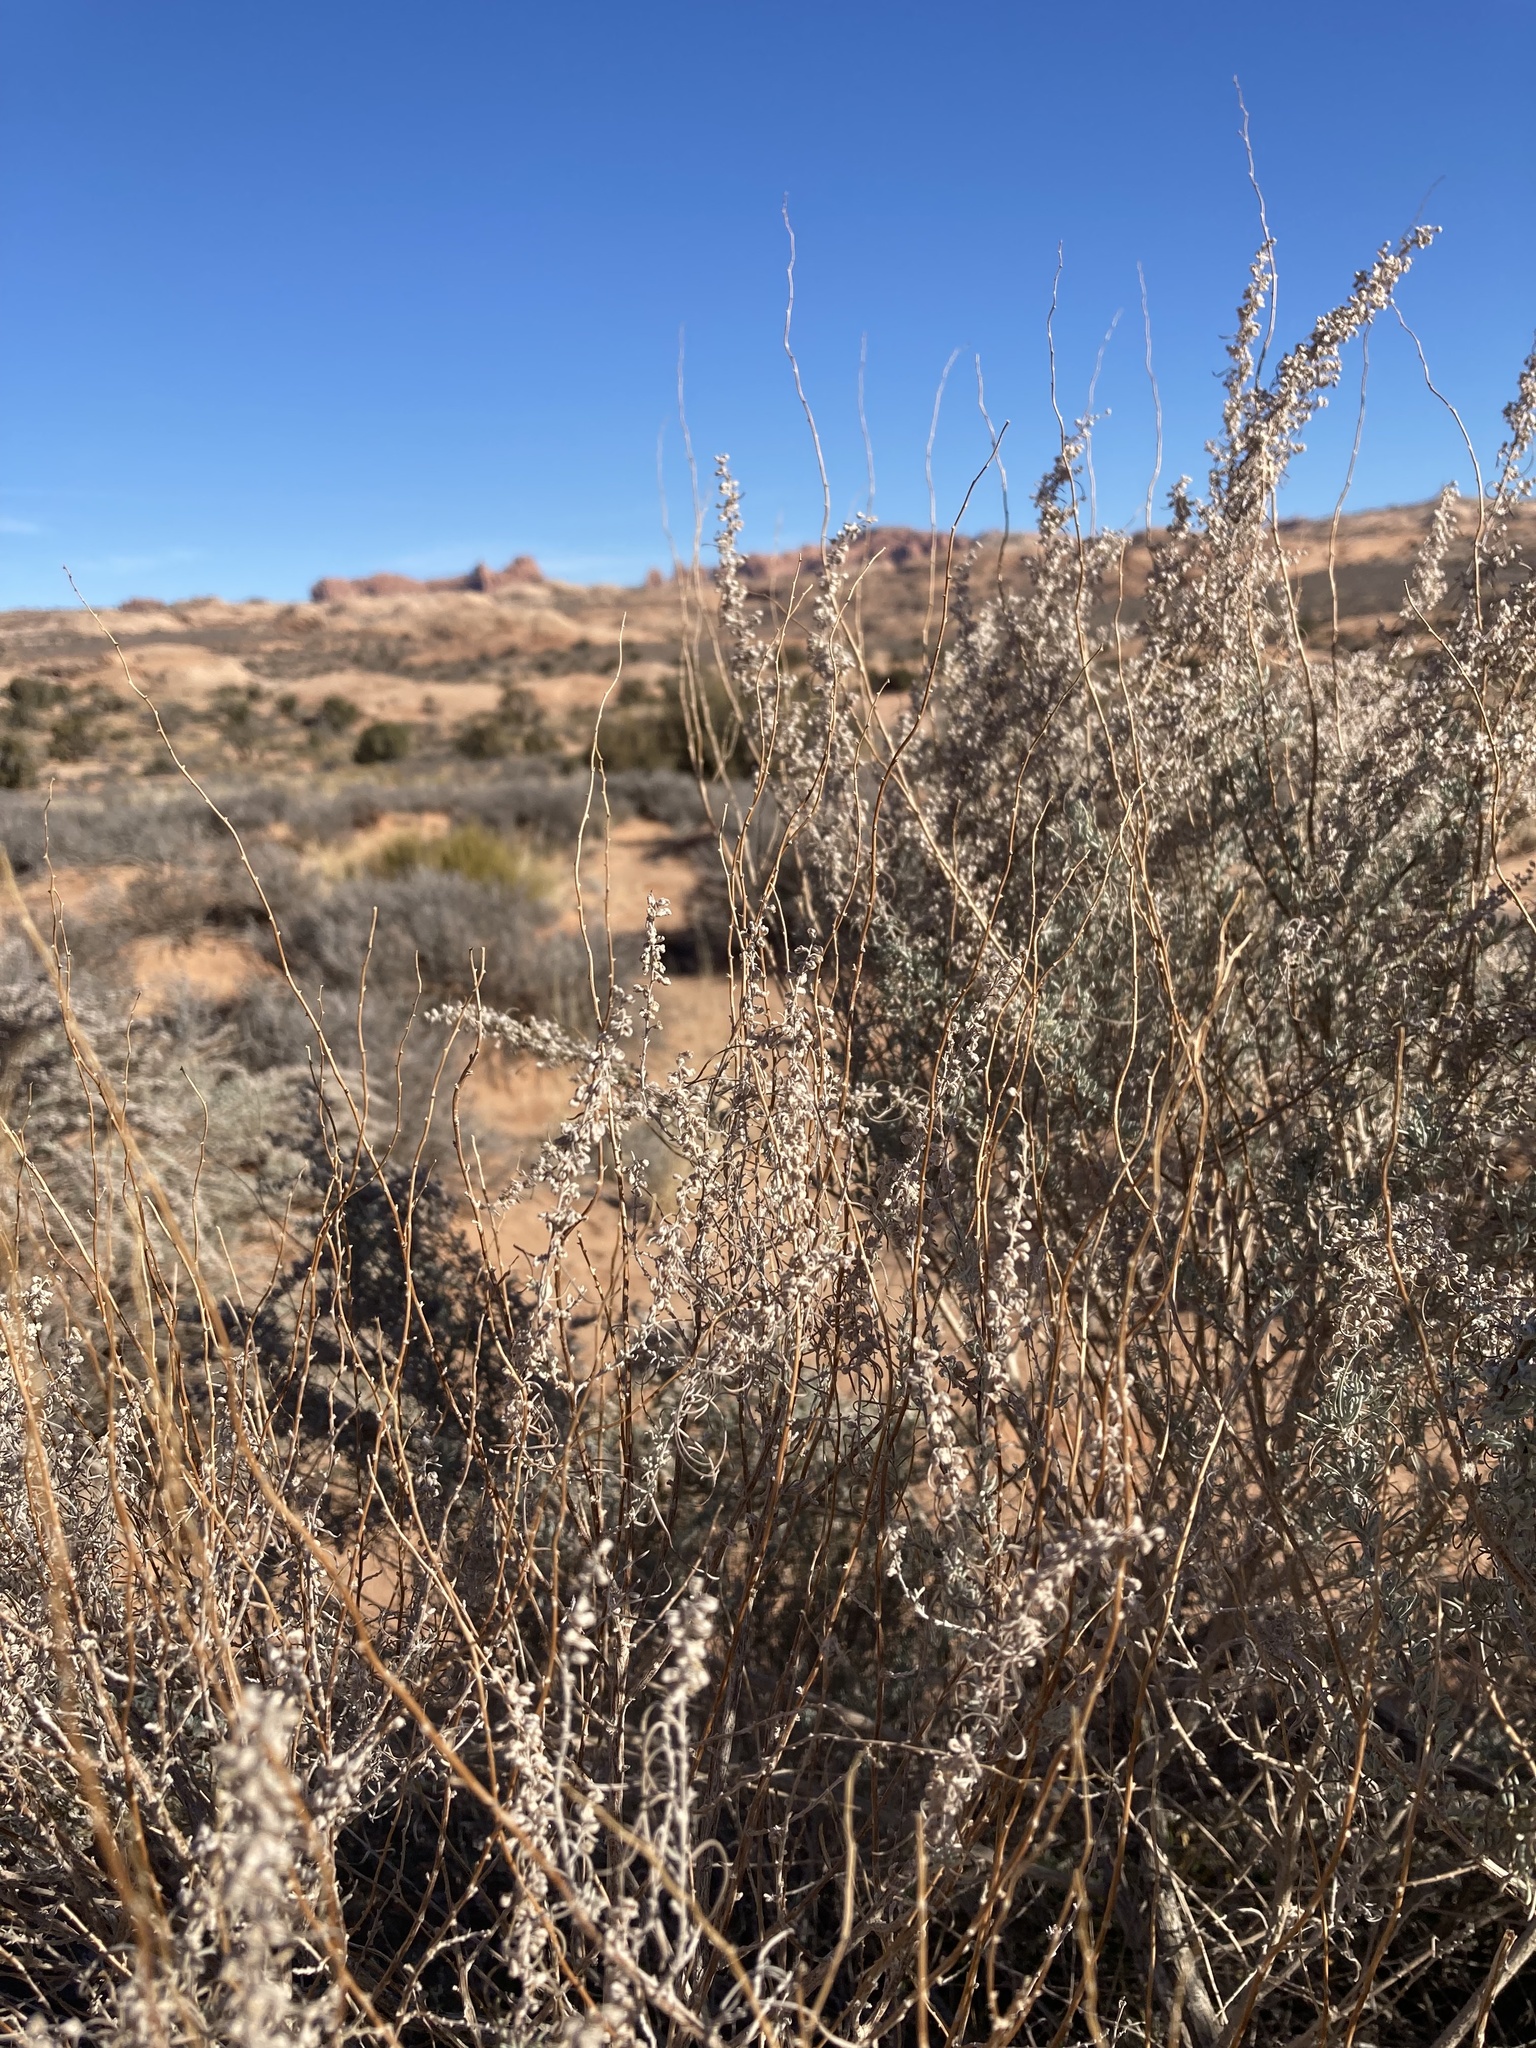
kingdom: Plantae
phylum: Tracheophyta
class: Magnoliopsida
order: Asterales
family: Asteraceae
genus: Artemisia
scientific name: Artemisia filifolia
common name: Sand-sage
